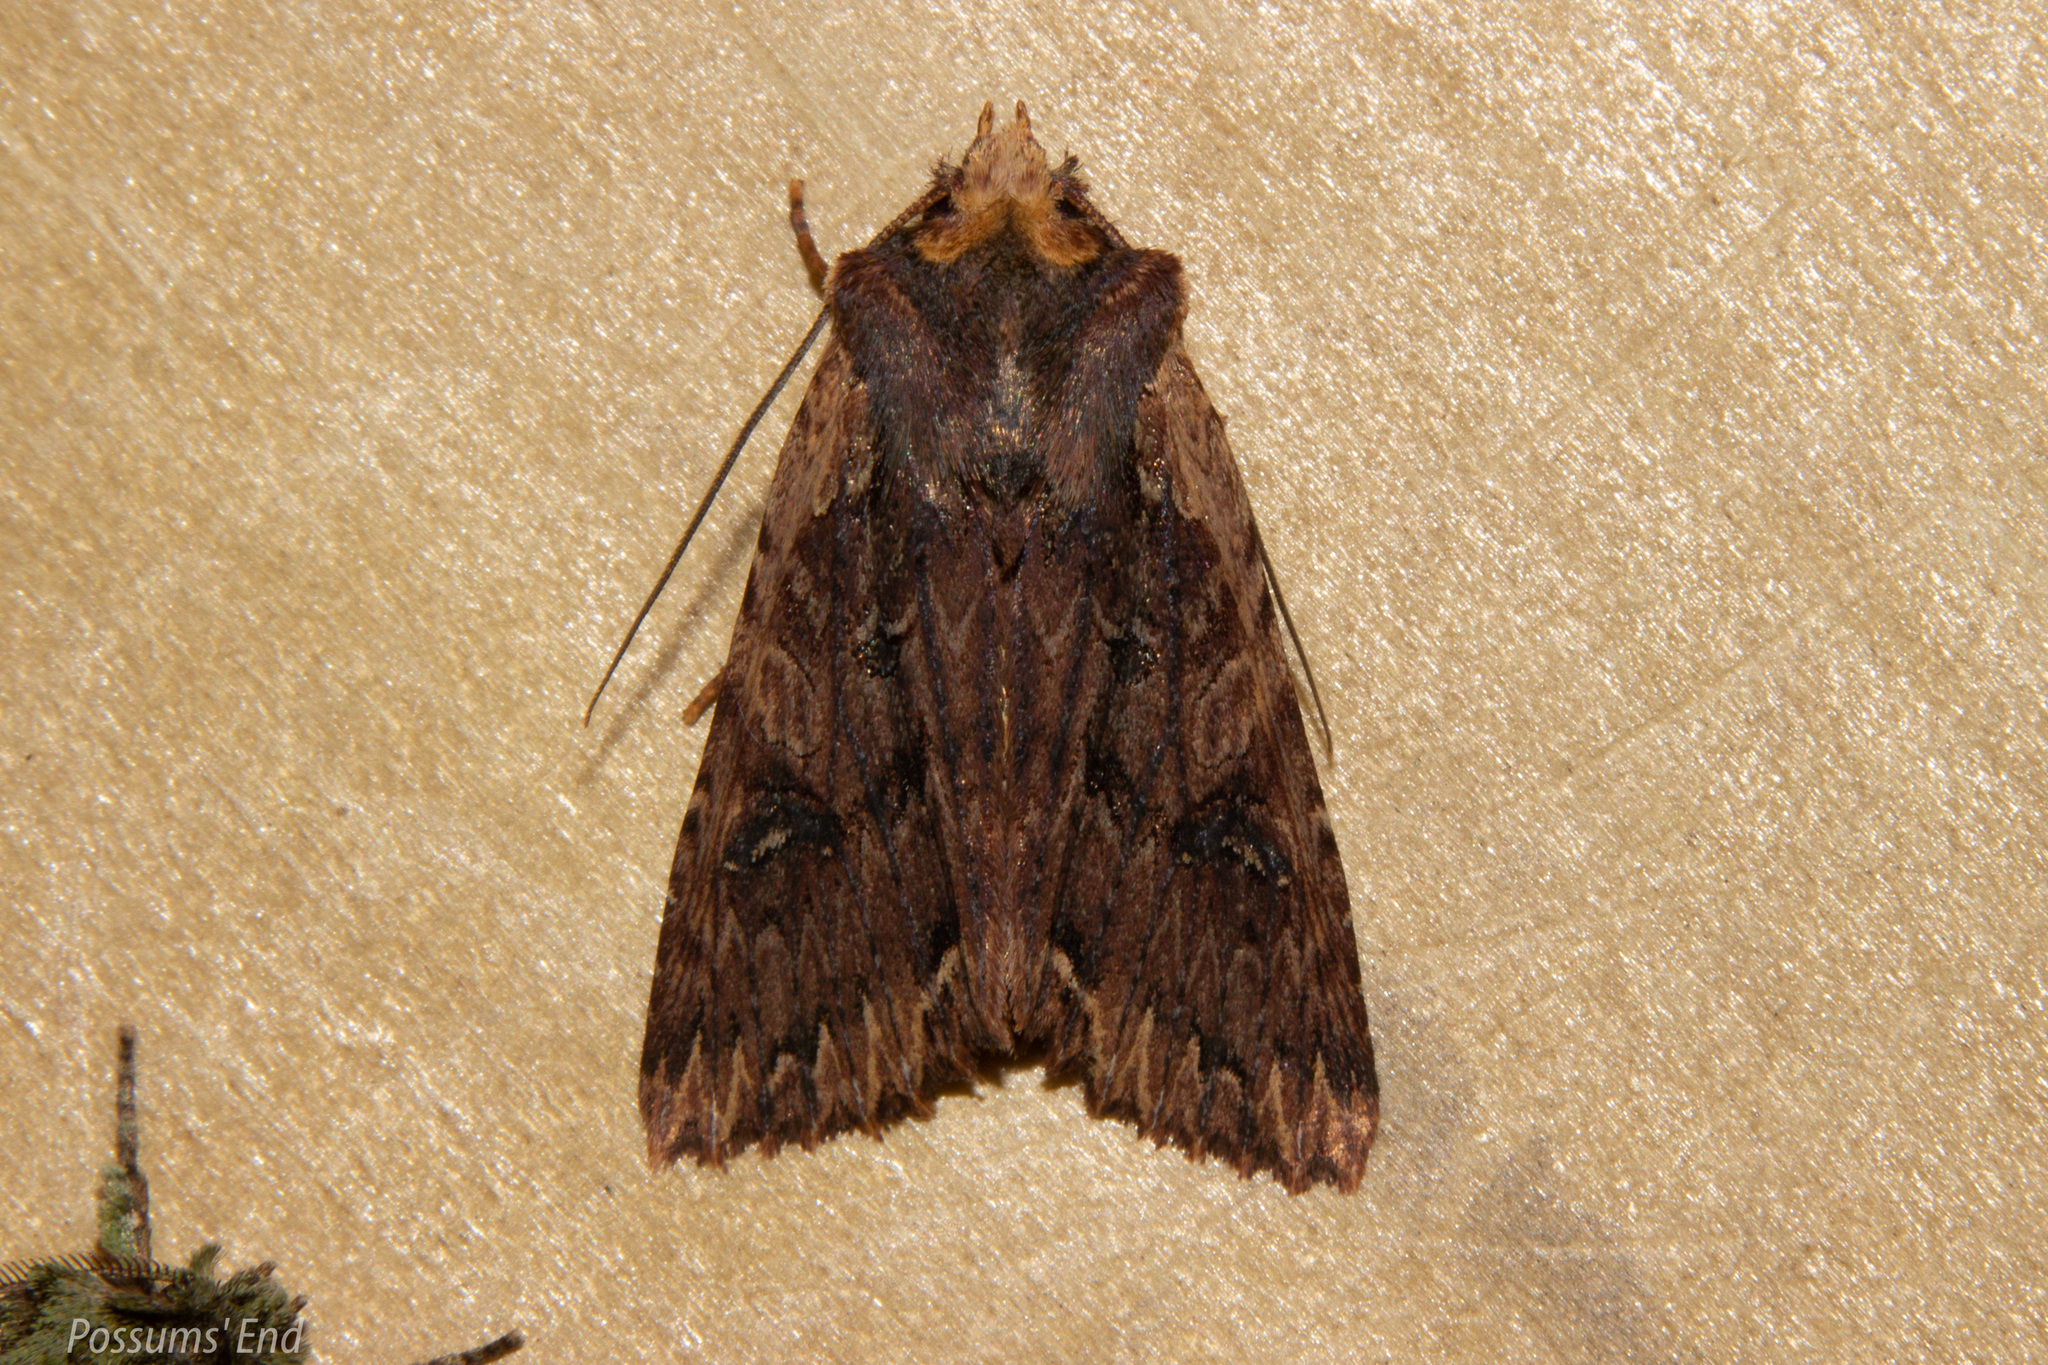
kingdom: Animalia
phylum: Arthropoda
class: Insecta
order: Lepidoptera
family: Noctuidae
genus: Meterana
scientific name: Meterana alcyone
